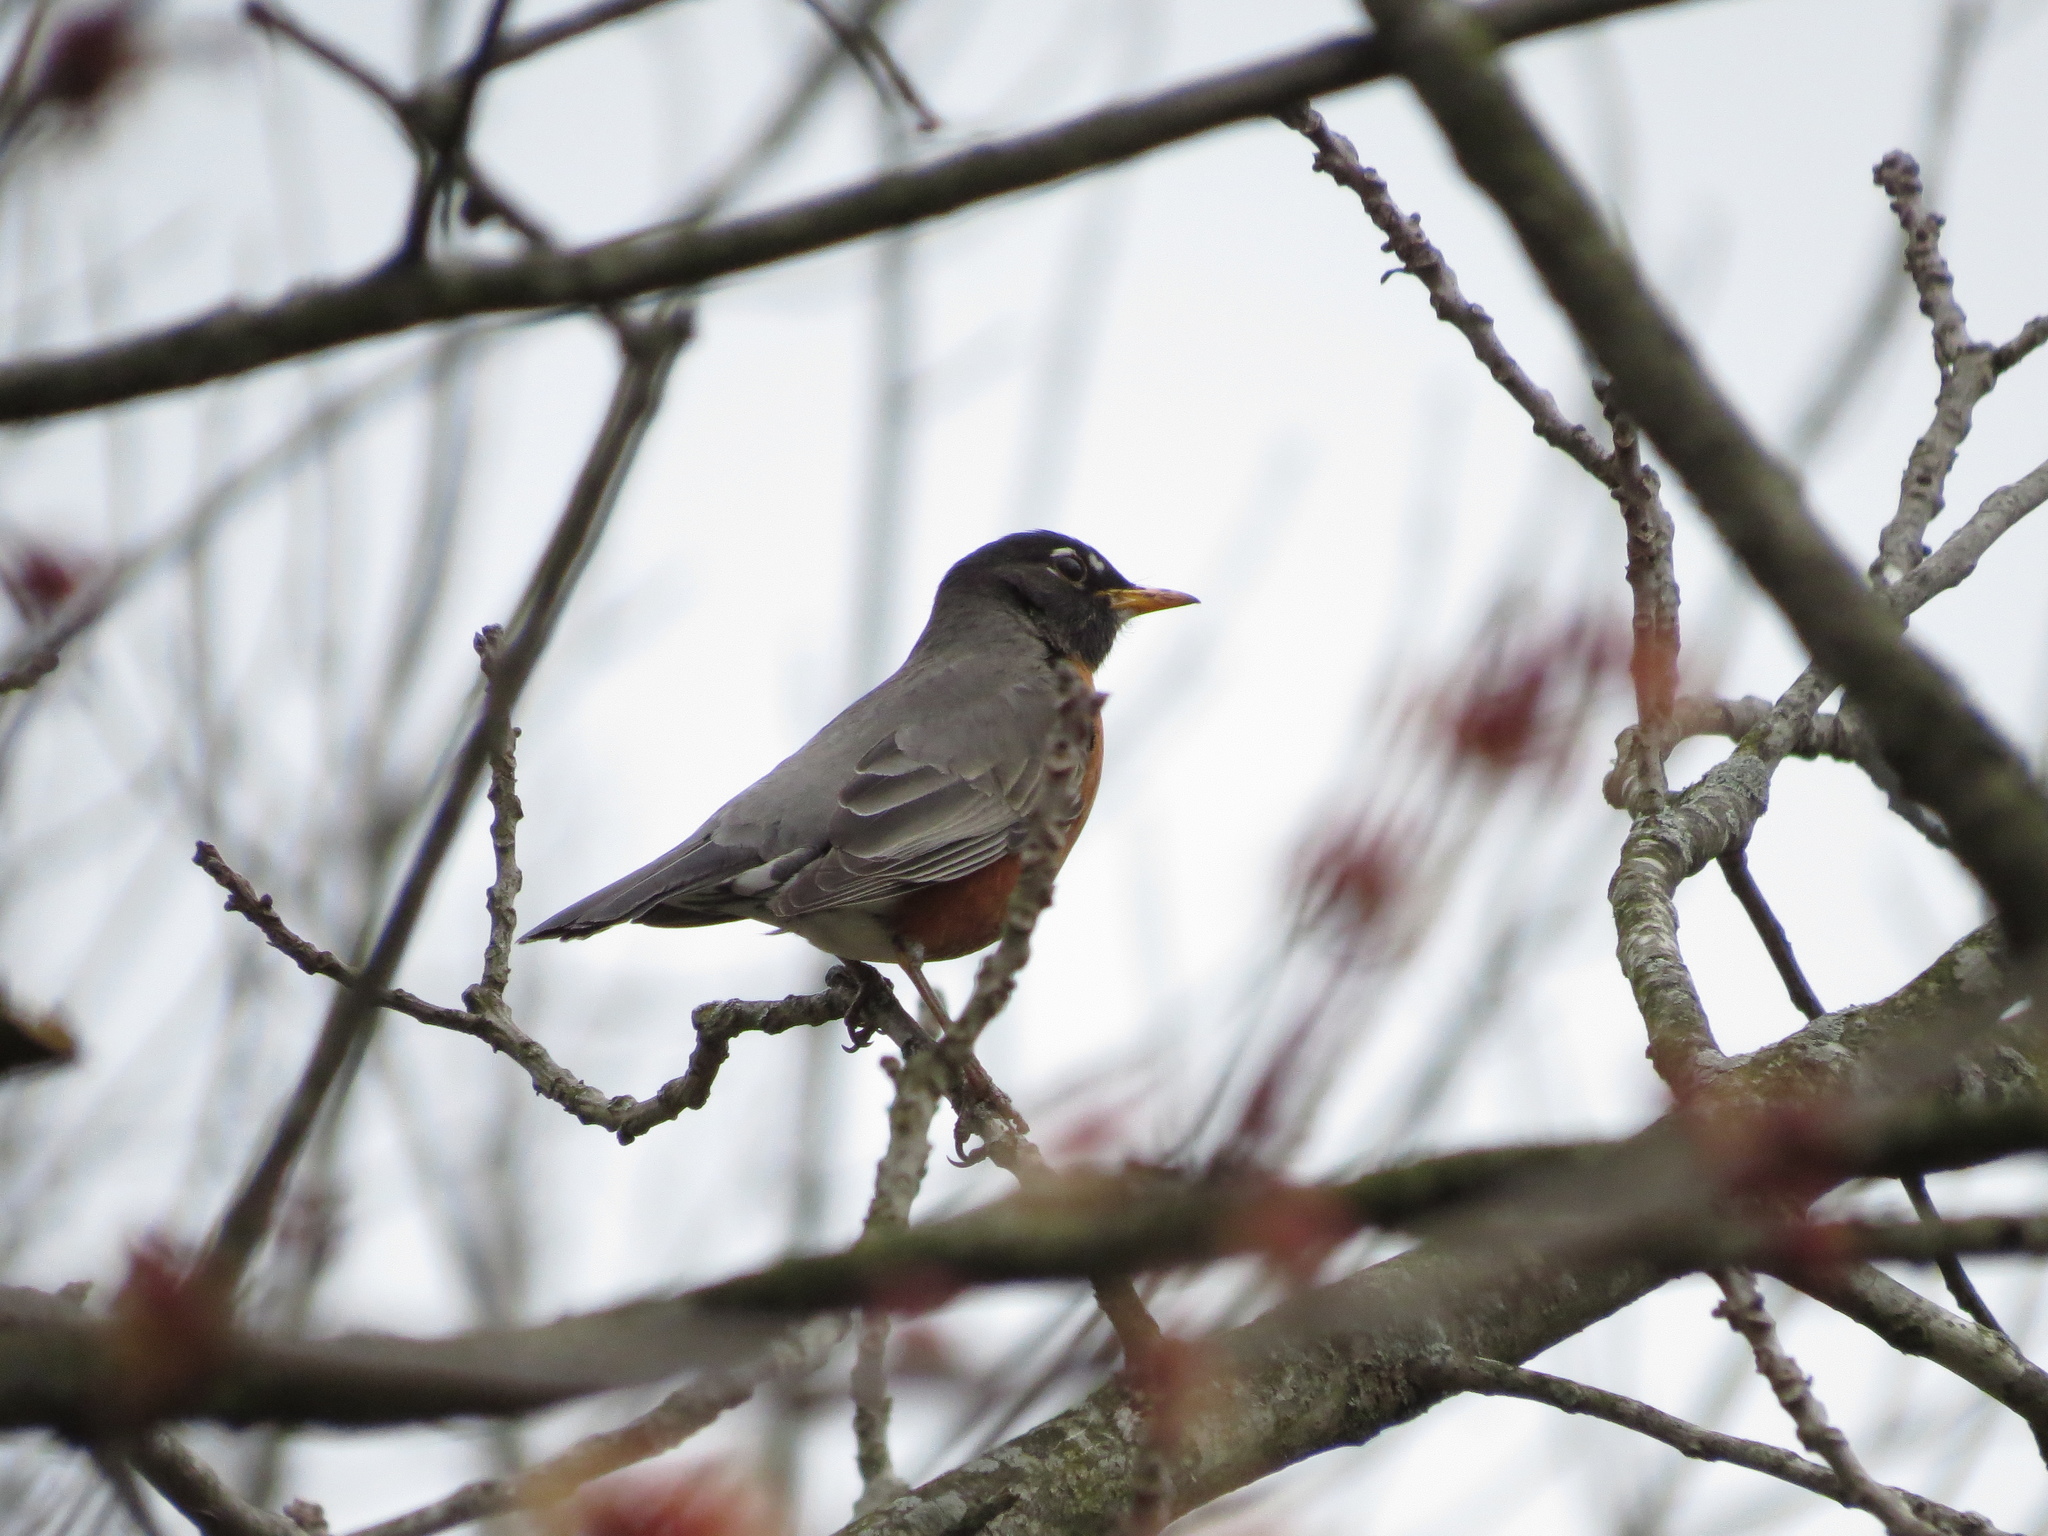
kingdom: Animalia
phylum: Chordata
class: Aves
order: Passeriformes
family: Turdidae
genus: Turdus
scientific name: Turdus migratorius
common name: American robin
